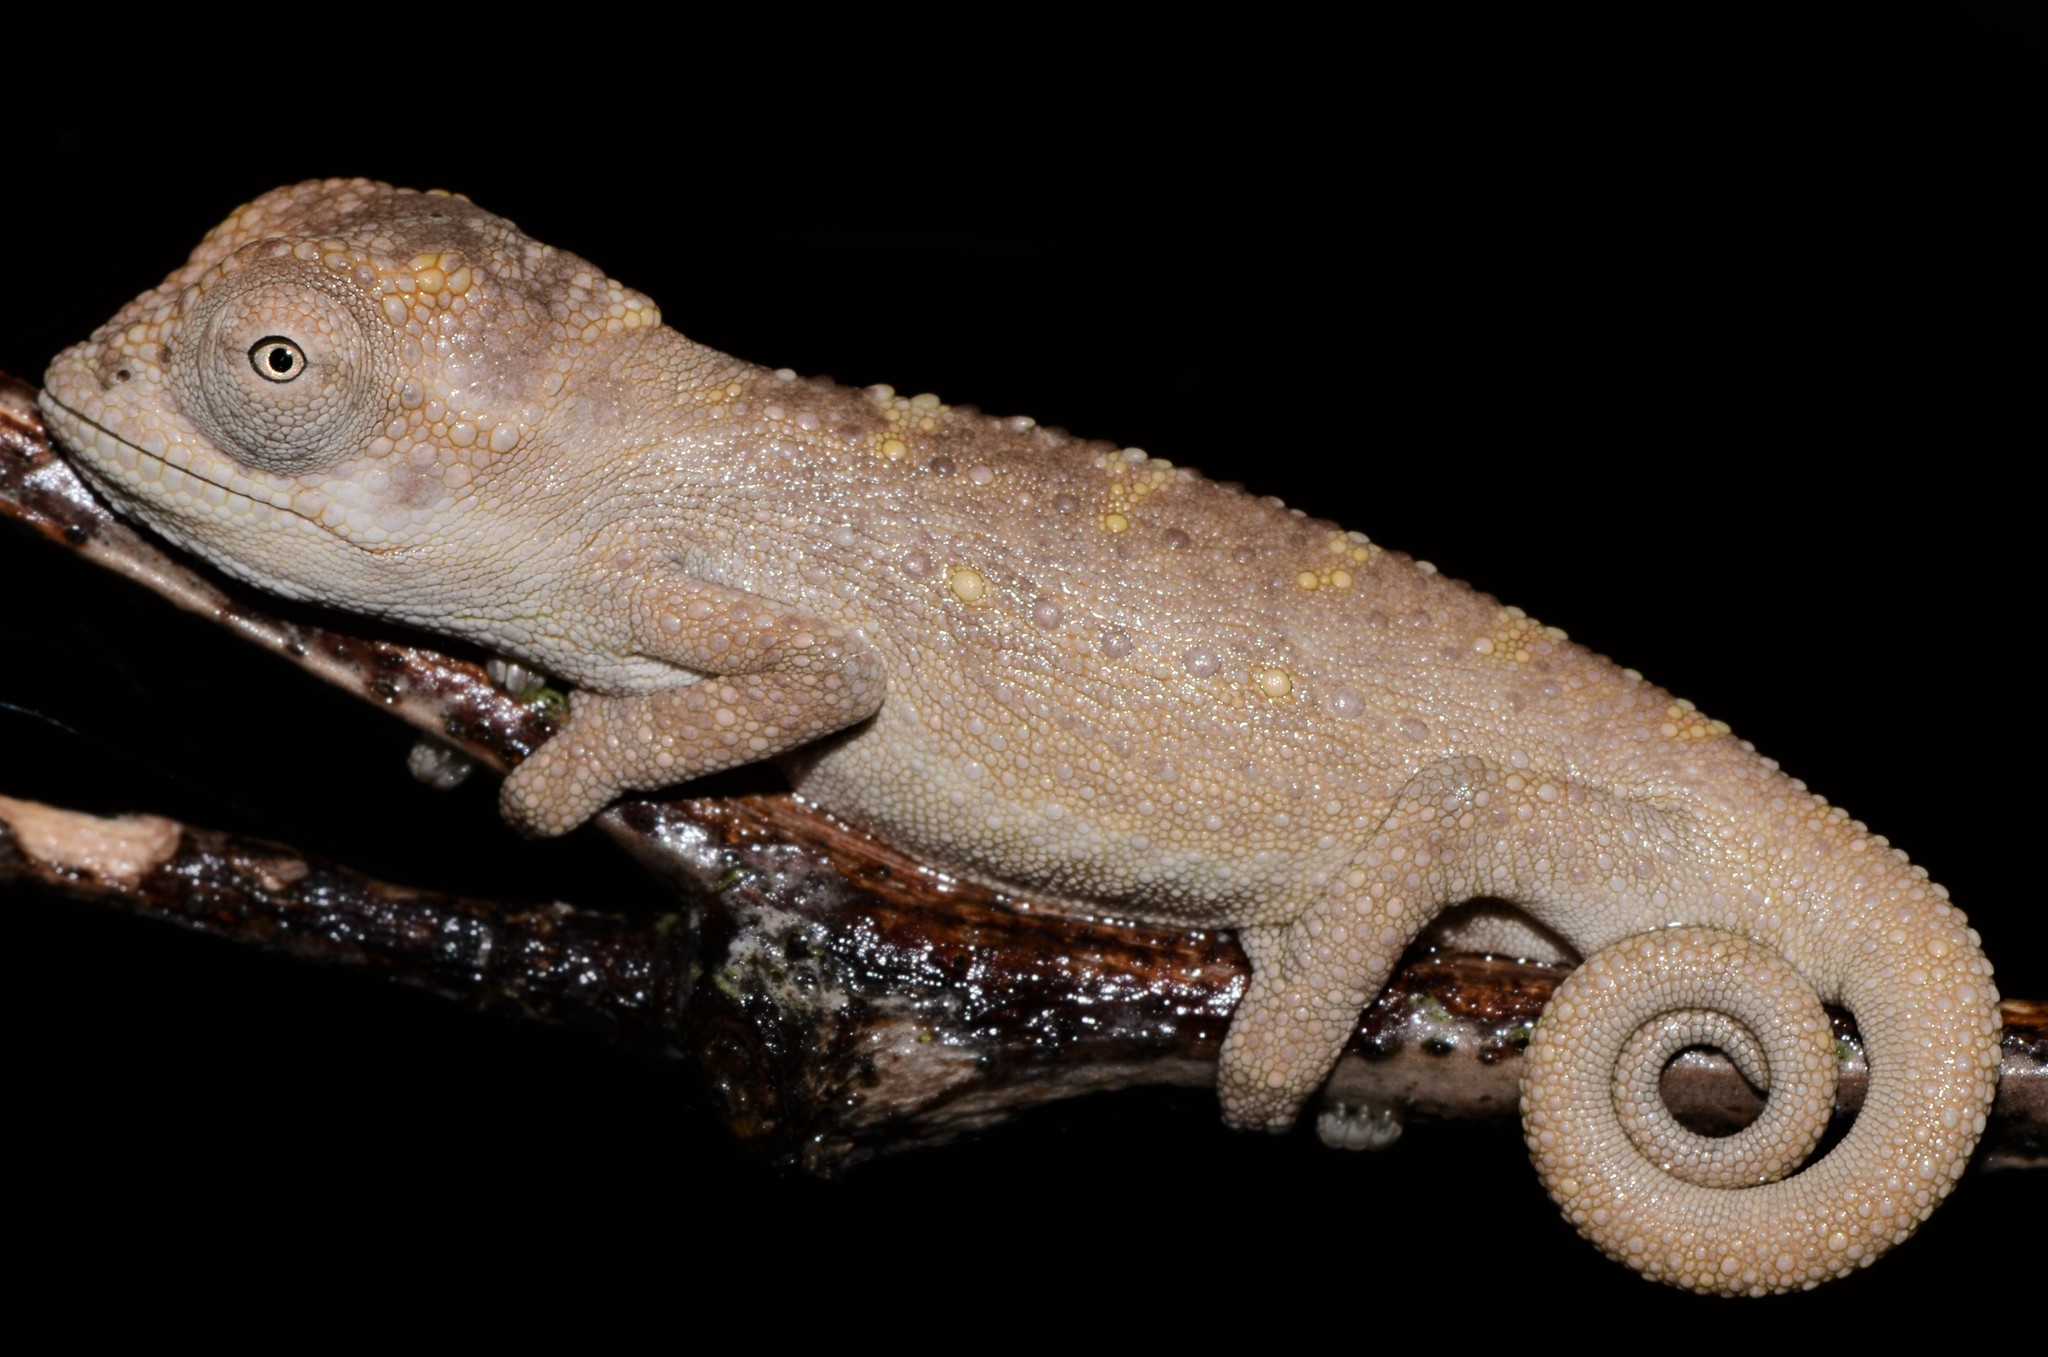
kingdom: Animalia
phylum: Chordata
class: Squamata
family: Chamaeleonidae
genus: Bradypodion
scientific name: Bradypodion pumilum
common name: Cape dwarf chameleon
